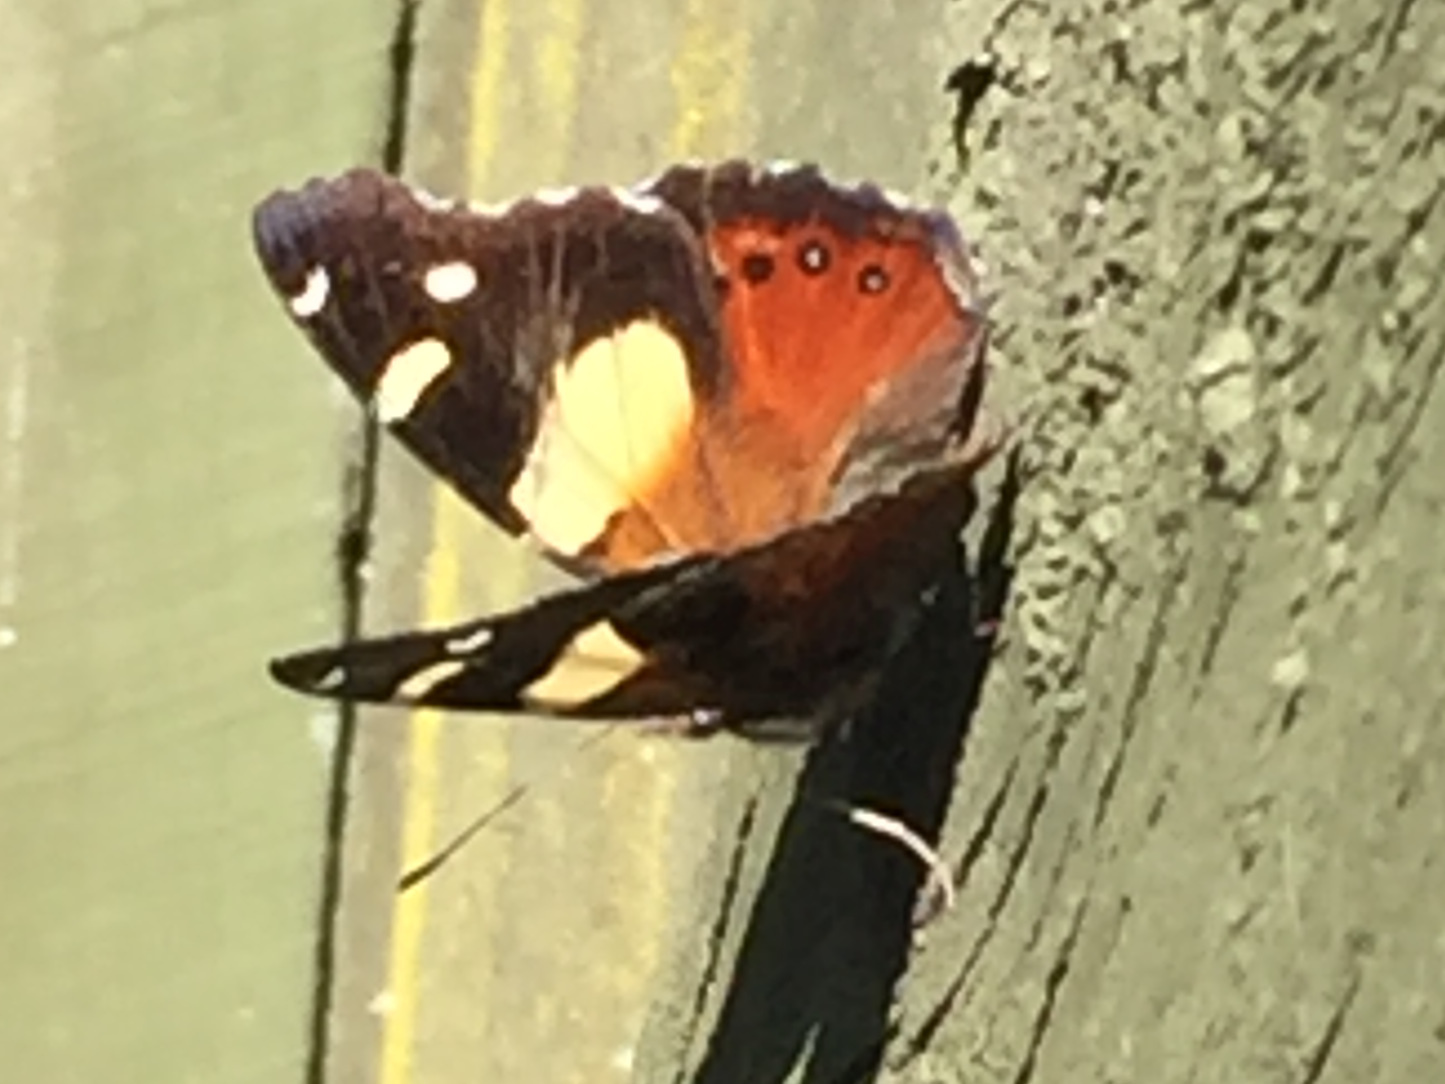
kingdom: Animalia
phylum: Arthropoda
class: Insecta
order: Lepidoptera
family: Nymphalidae
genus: Vanessa
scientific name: Vanessa itea
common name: Yellow admiral
